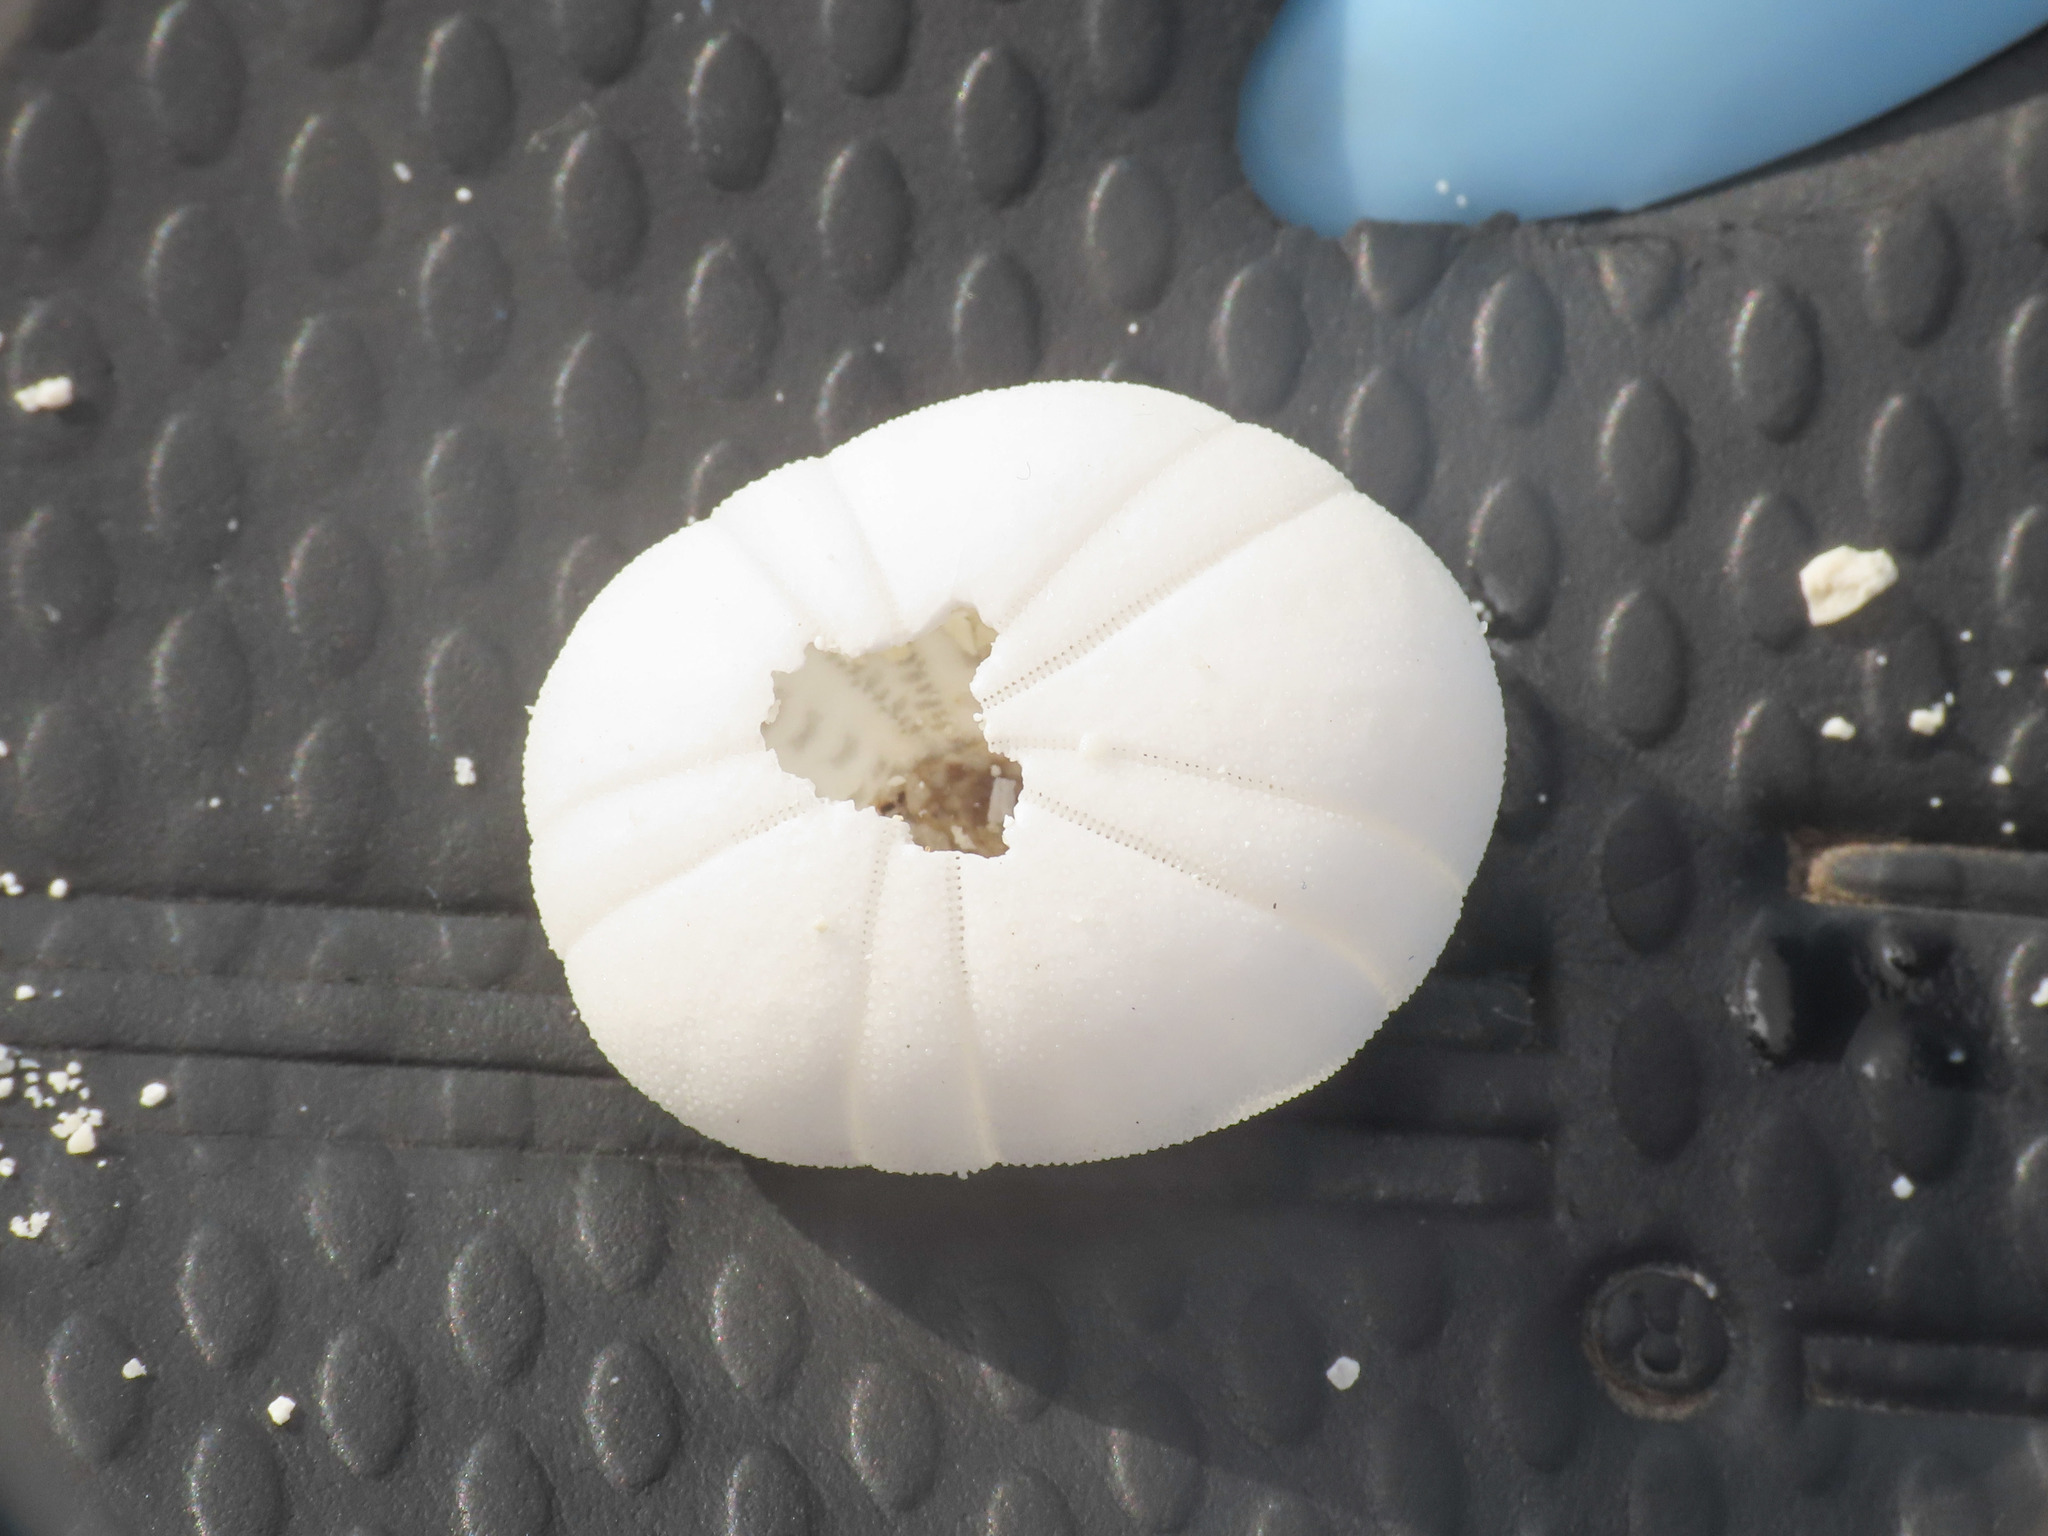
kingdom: Animalia
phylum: Echinodermata
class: Echinoidea
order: Echinoneoida
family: Echinoneidae
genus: Echinoneus
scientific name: Echinoneus cyclostomus
